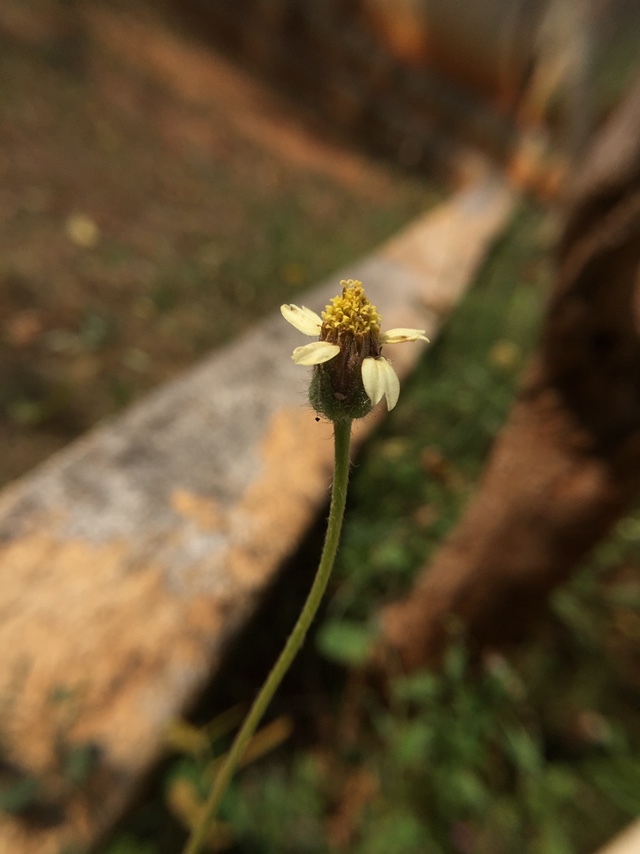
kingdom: Plantae
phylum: Tracheophyta
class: Magnoliopsida
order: Asterales
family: Asteraceae
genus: Tridax
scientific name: Tridax procumbens
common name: Coatbuttons
